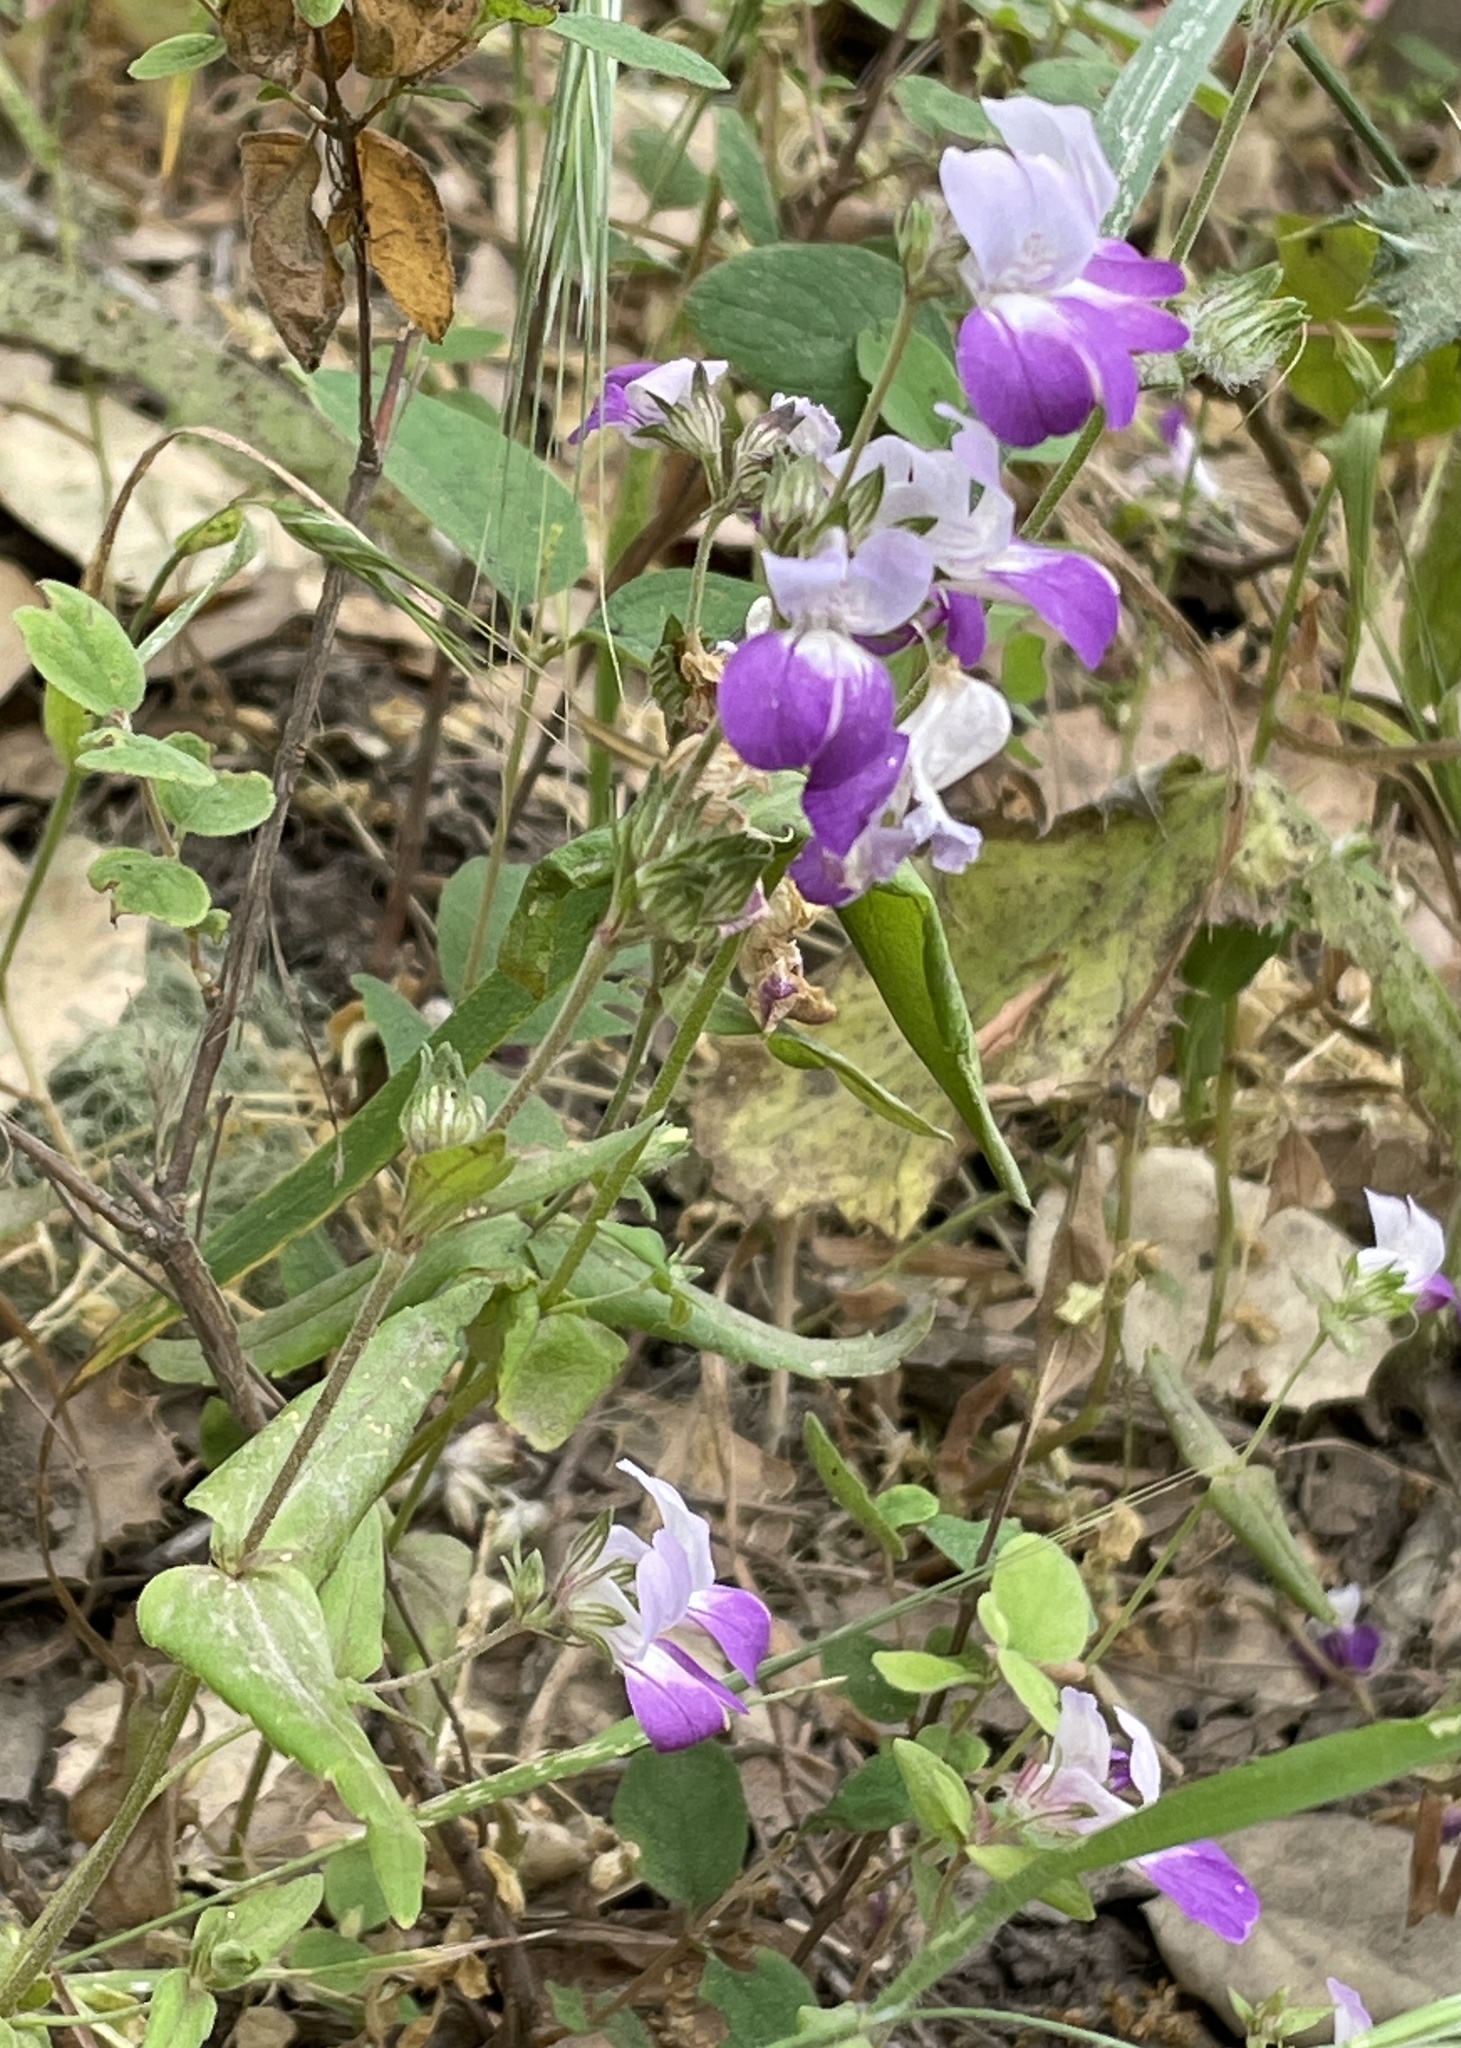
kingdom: Plantae
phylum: Tracheophyta
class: Magnoliopsida
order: Lamiales
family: Plantaginaceae
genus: Collinsia
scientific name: Collinsia heterophylla
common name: Chinese-houses
